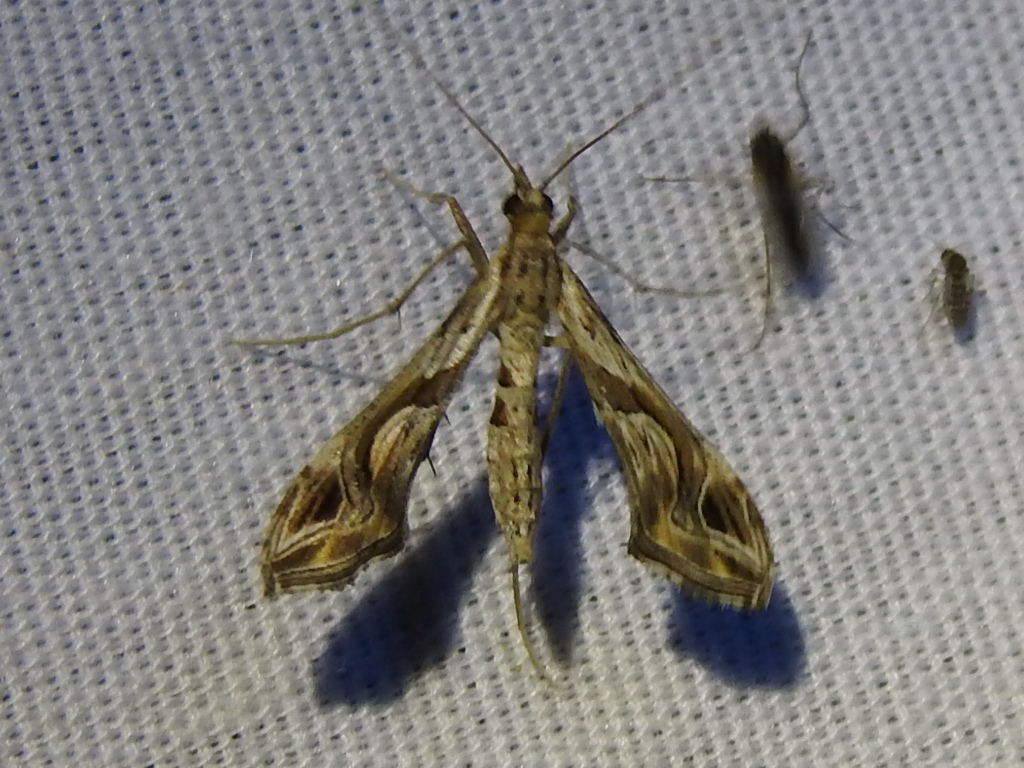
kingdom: Animalia
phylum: Arthropoda
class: Insecta
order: Lepidoptera
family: Crambidae
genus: Lineodes
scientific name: Lineodes integra
